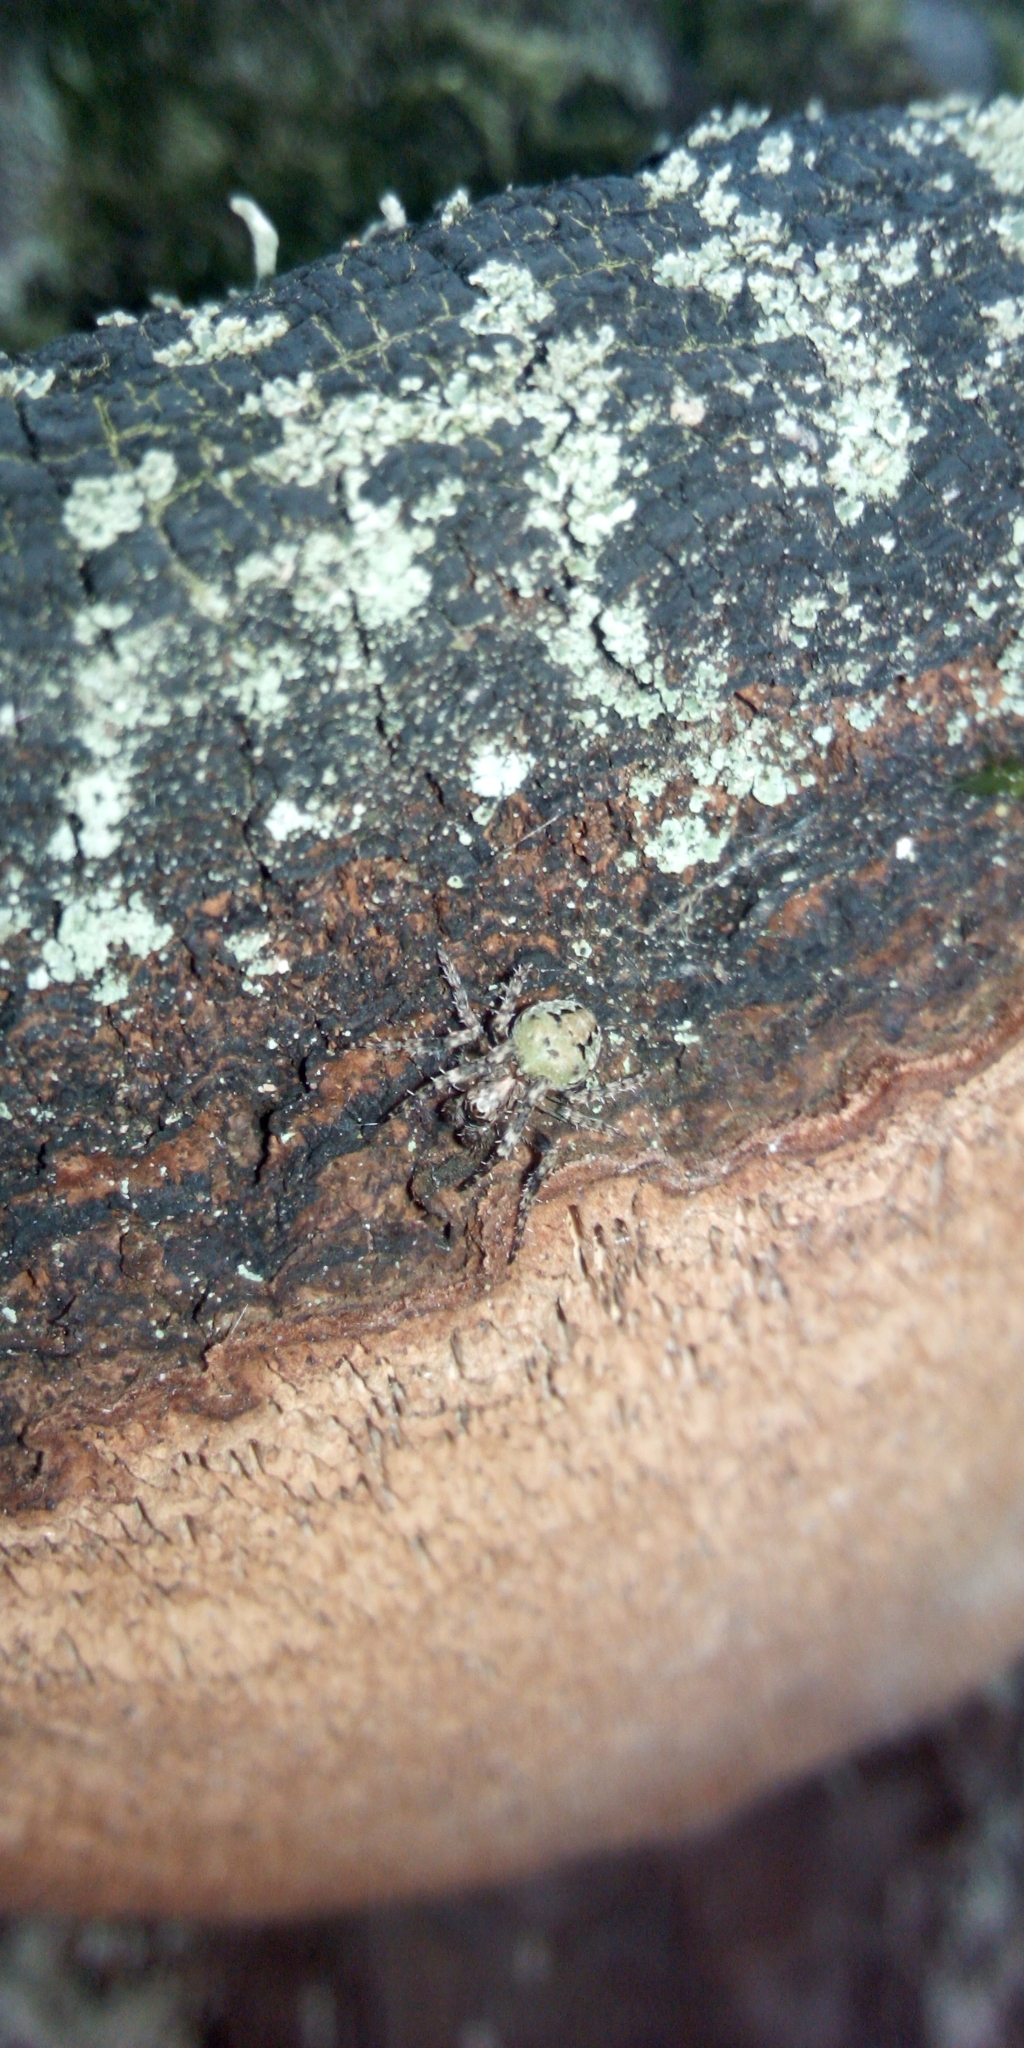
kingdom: Animalia
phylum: Arthropoda
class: Arachnida
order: Araneae
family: Araneidae
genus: Gibbaranea
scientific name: Gibbaranea gibbosa
